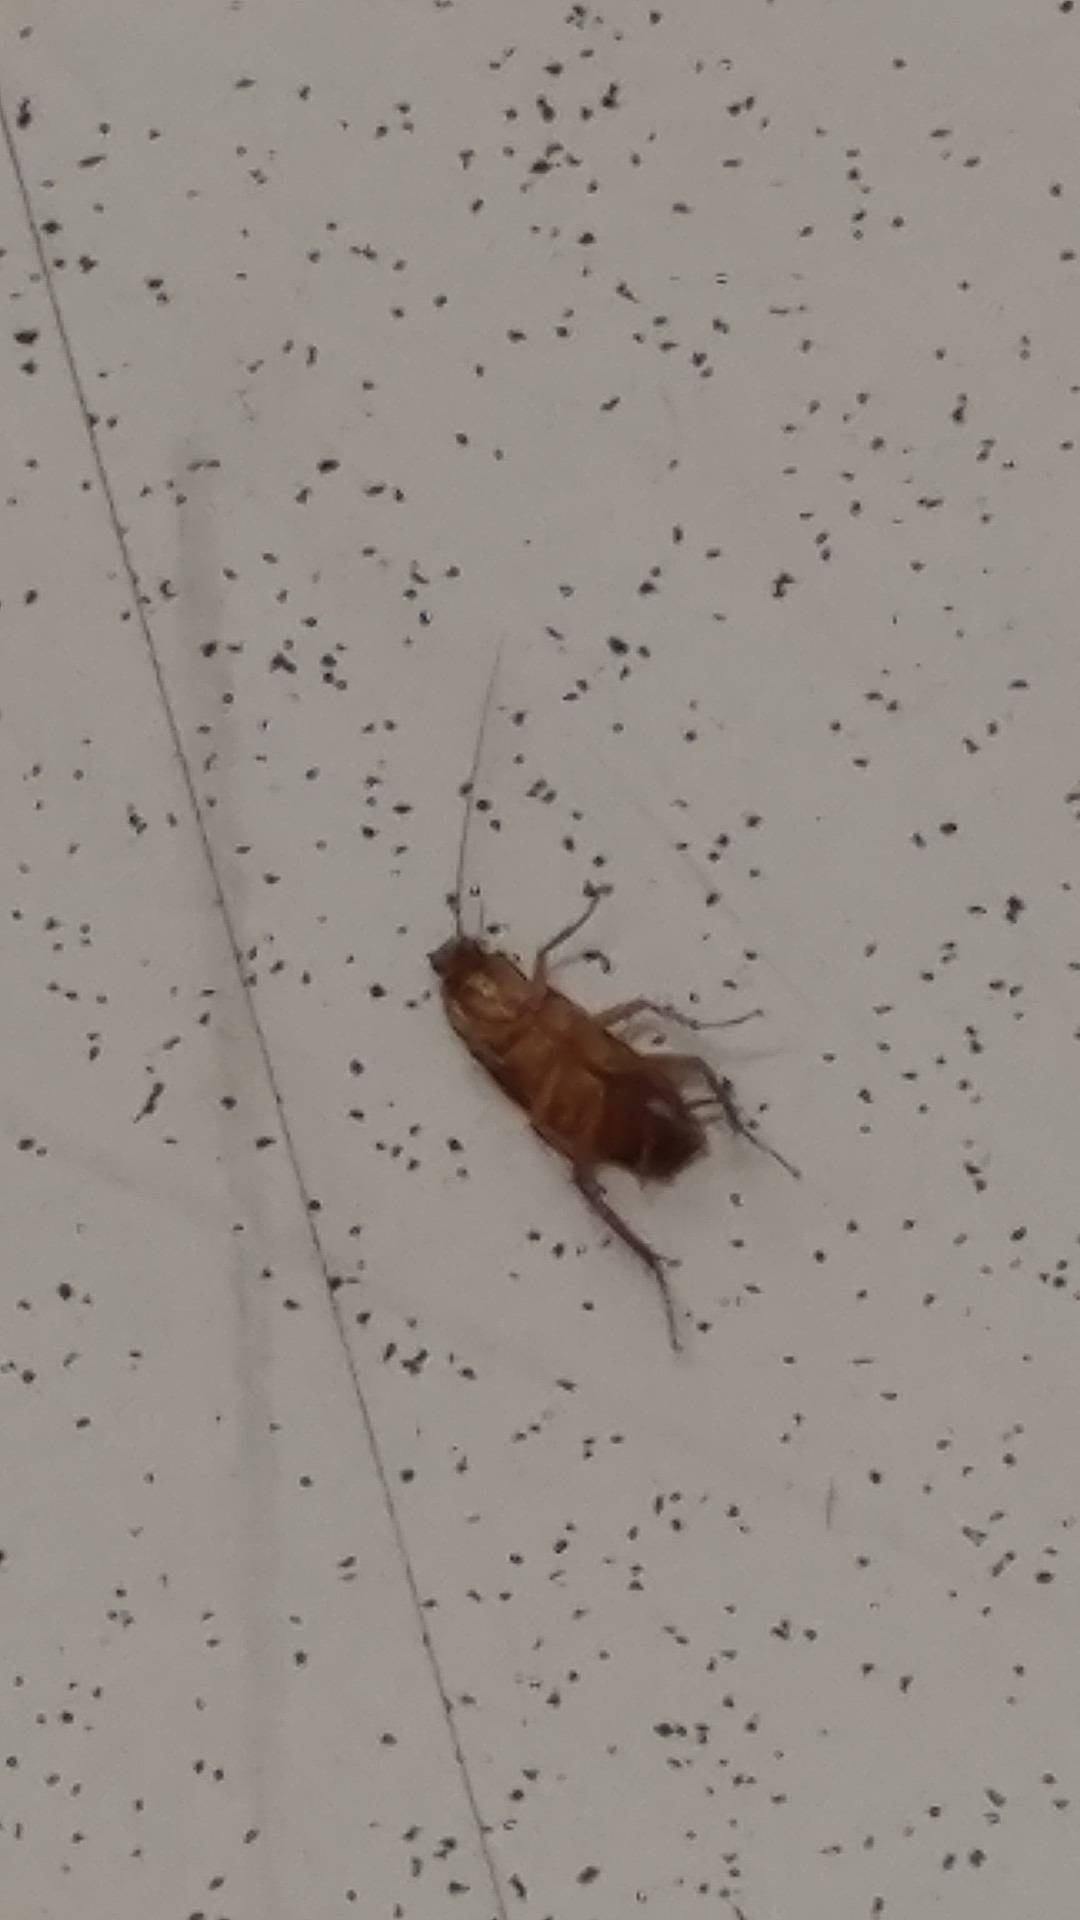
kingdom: Animalia
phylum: Arthropoda
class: Insecta
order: Blattodea
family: Blattidae
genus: Periplaneta
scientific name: Periplaneta americana
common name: American cockroach
